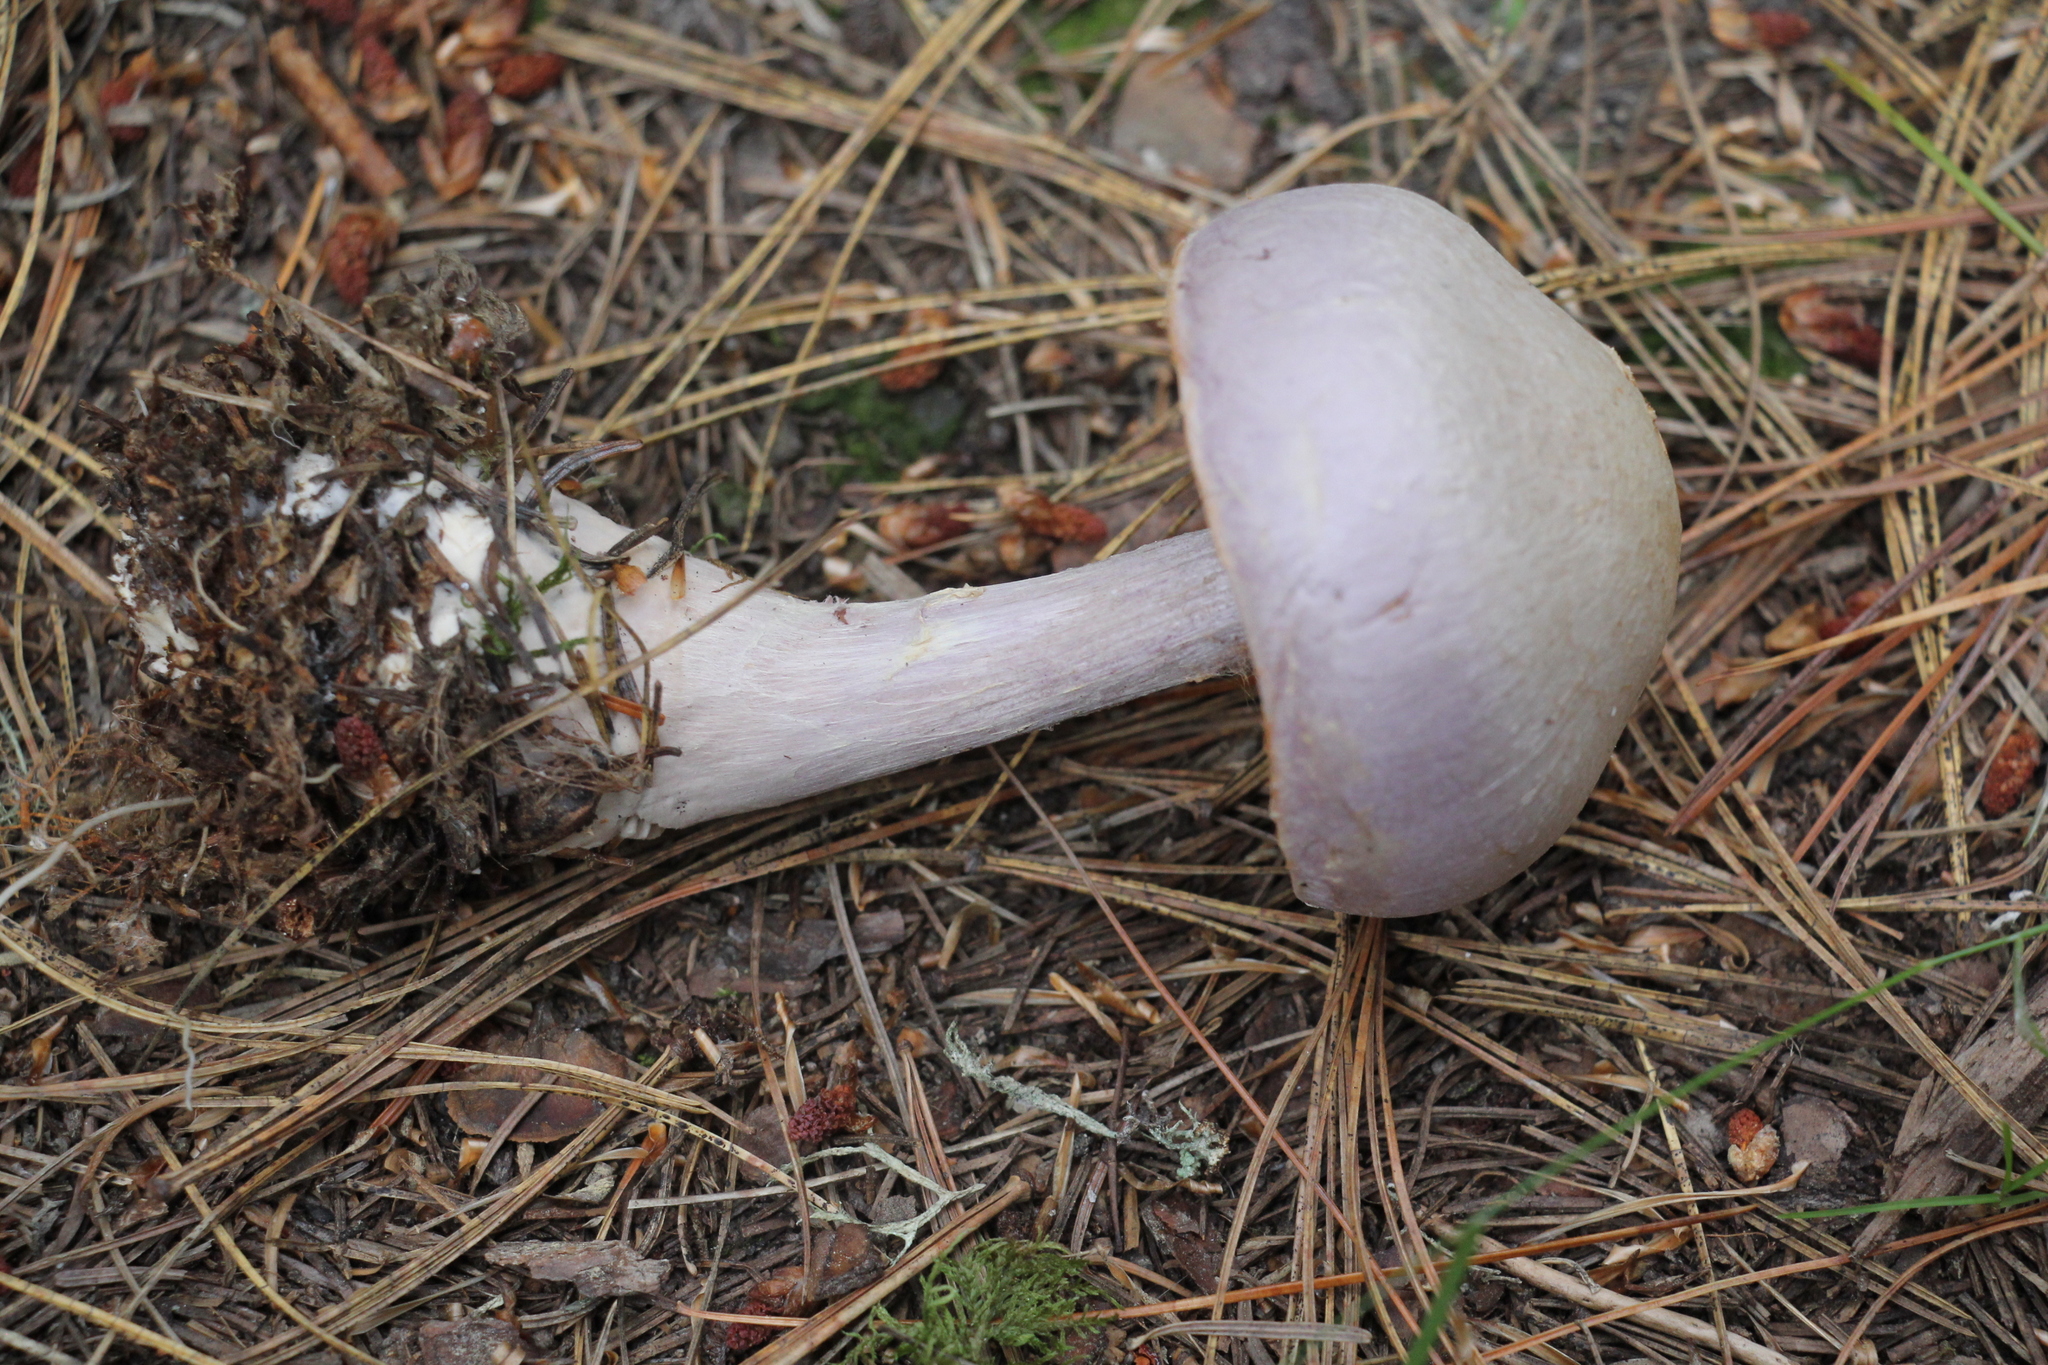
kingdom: Fungi
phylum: Basidiomycota
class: Agaricomycetes
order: Agaricales
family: Cortinariaceae
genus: Cortinarius
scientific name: Cortinarius camphoratus
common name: Goatcheese webcap
